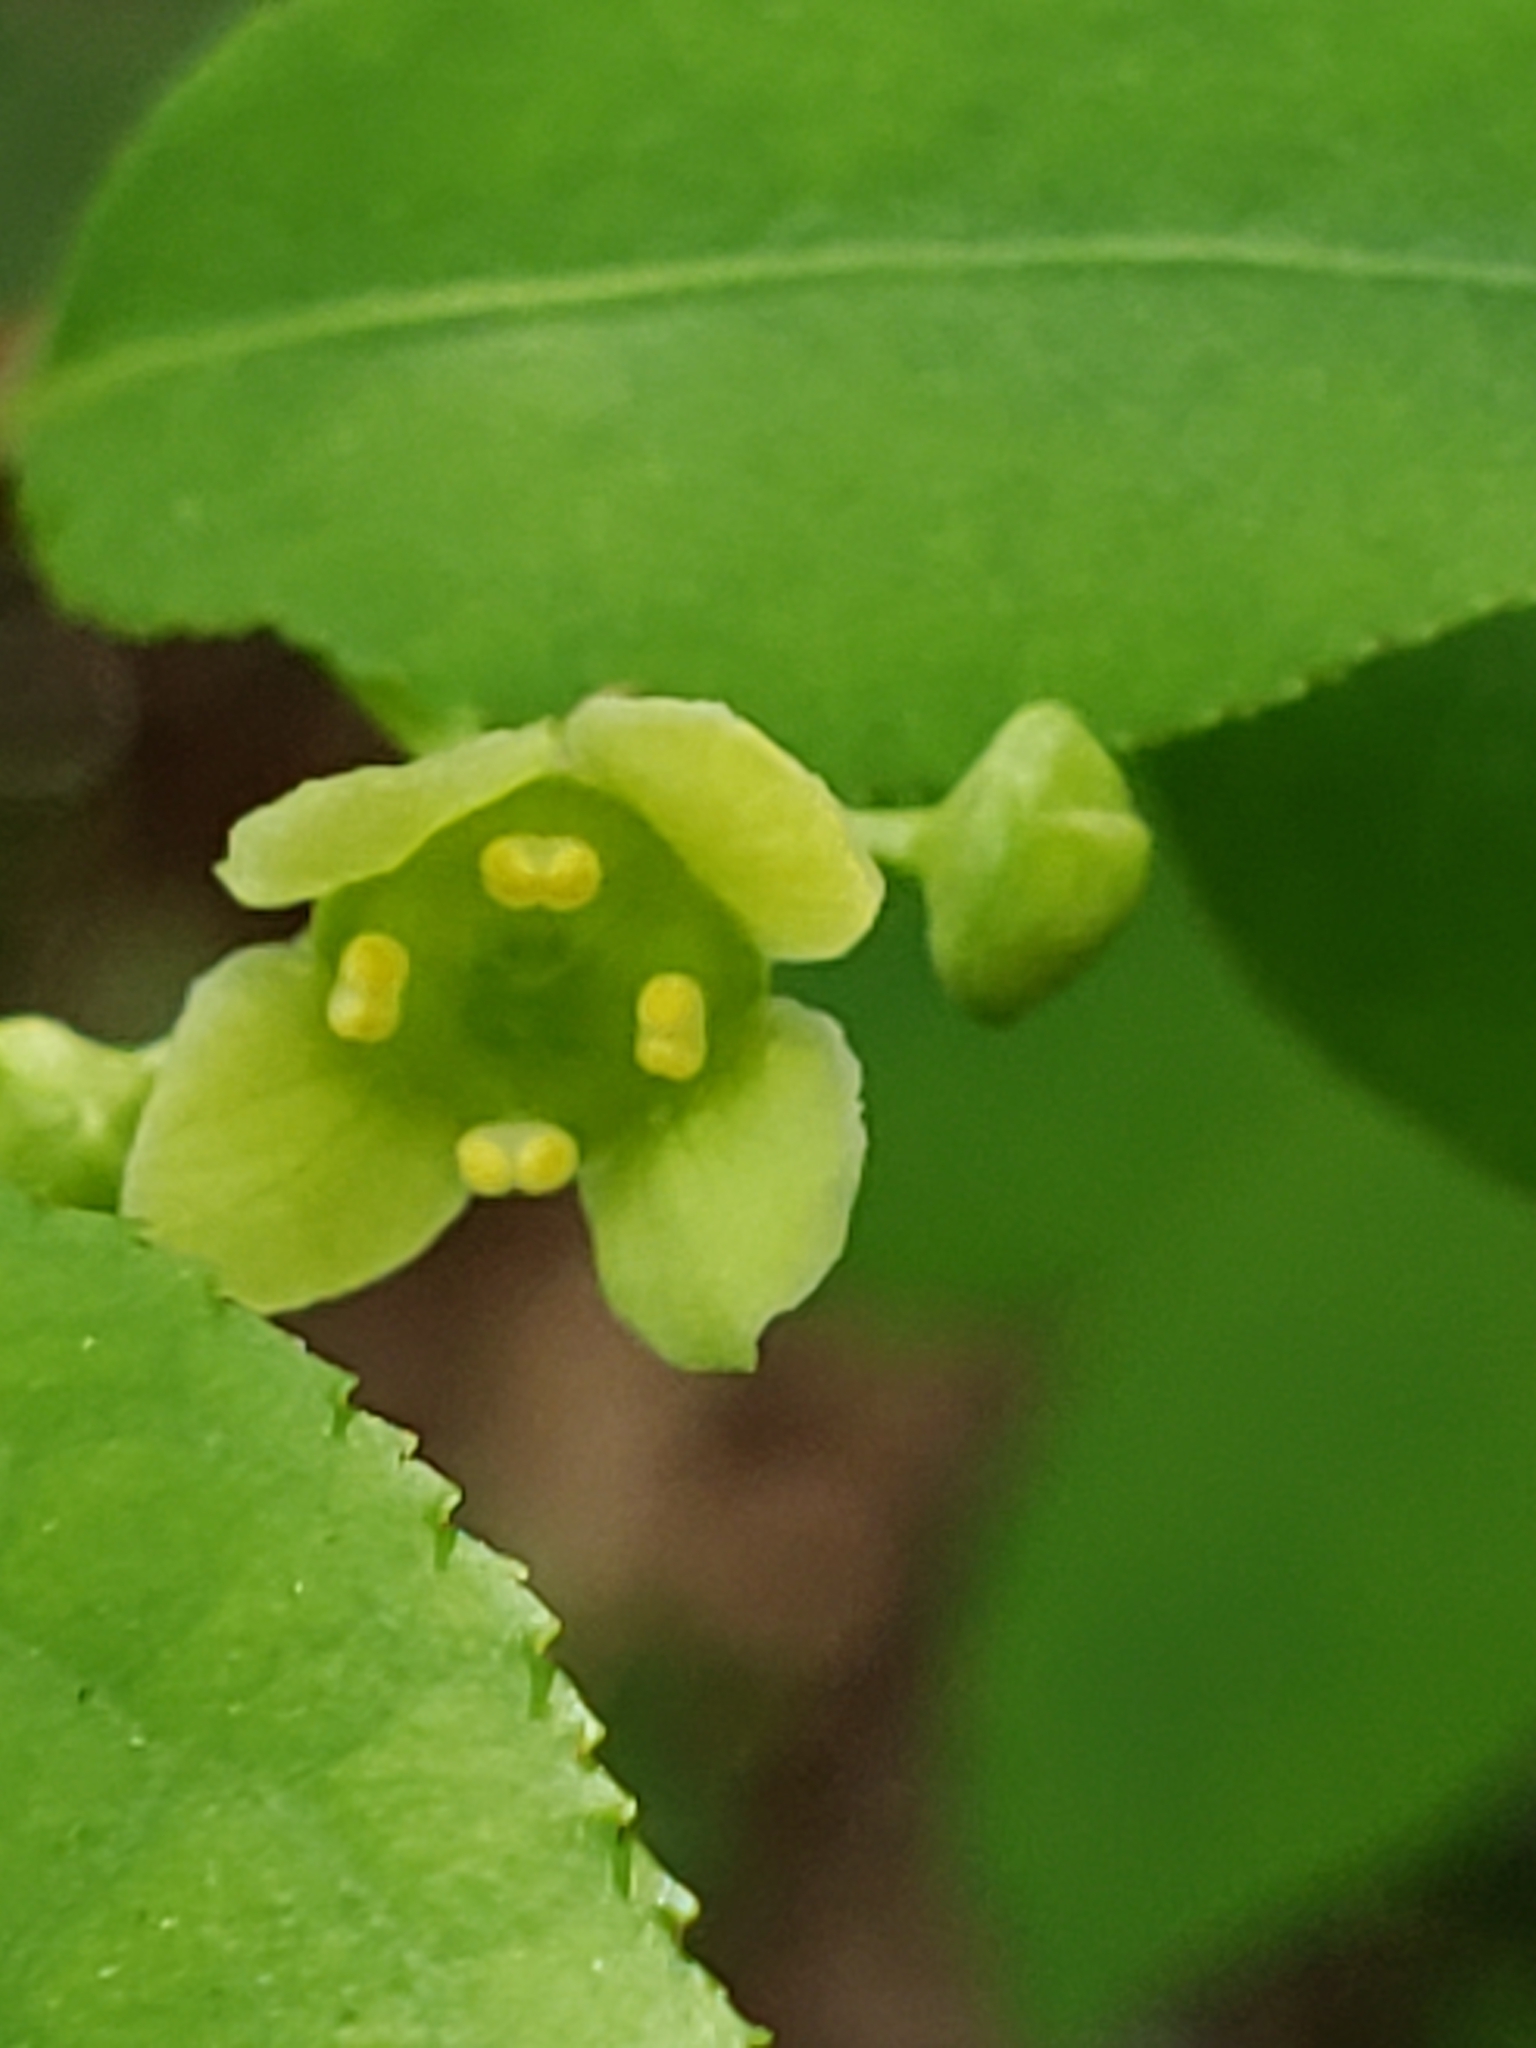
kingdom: Plantae
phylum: Tracheophyta
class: Magnoliopsida
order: Celastrales
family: Celastraceae
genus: Euonymus
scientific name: Euonymus alatus
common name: Winged euonymus
